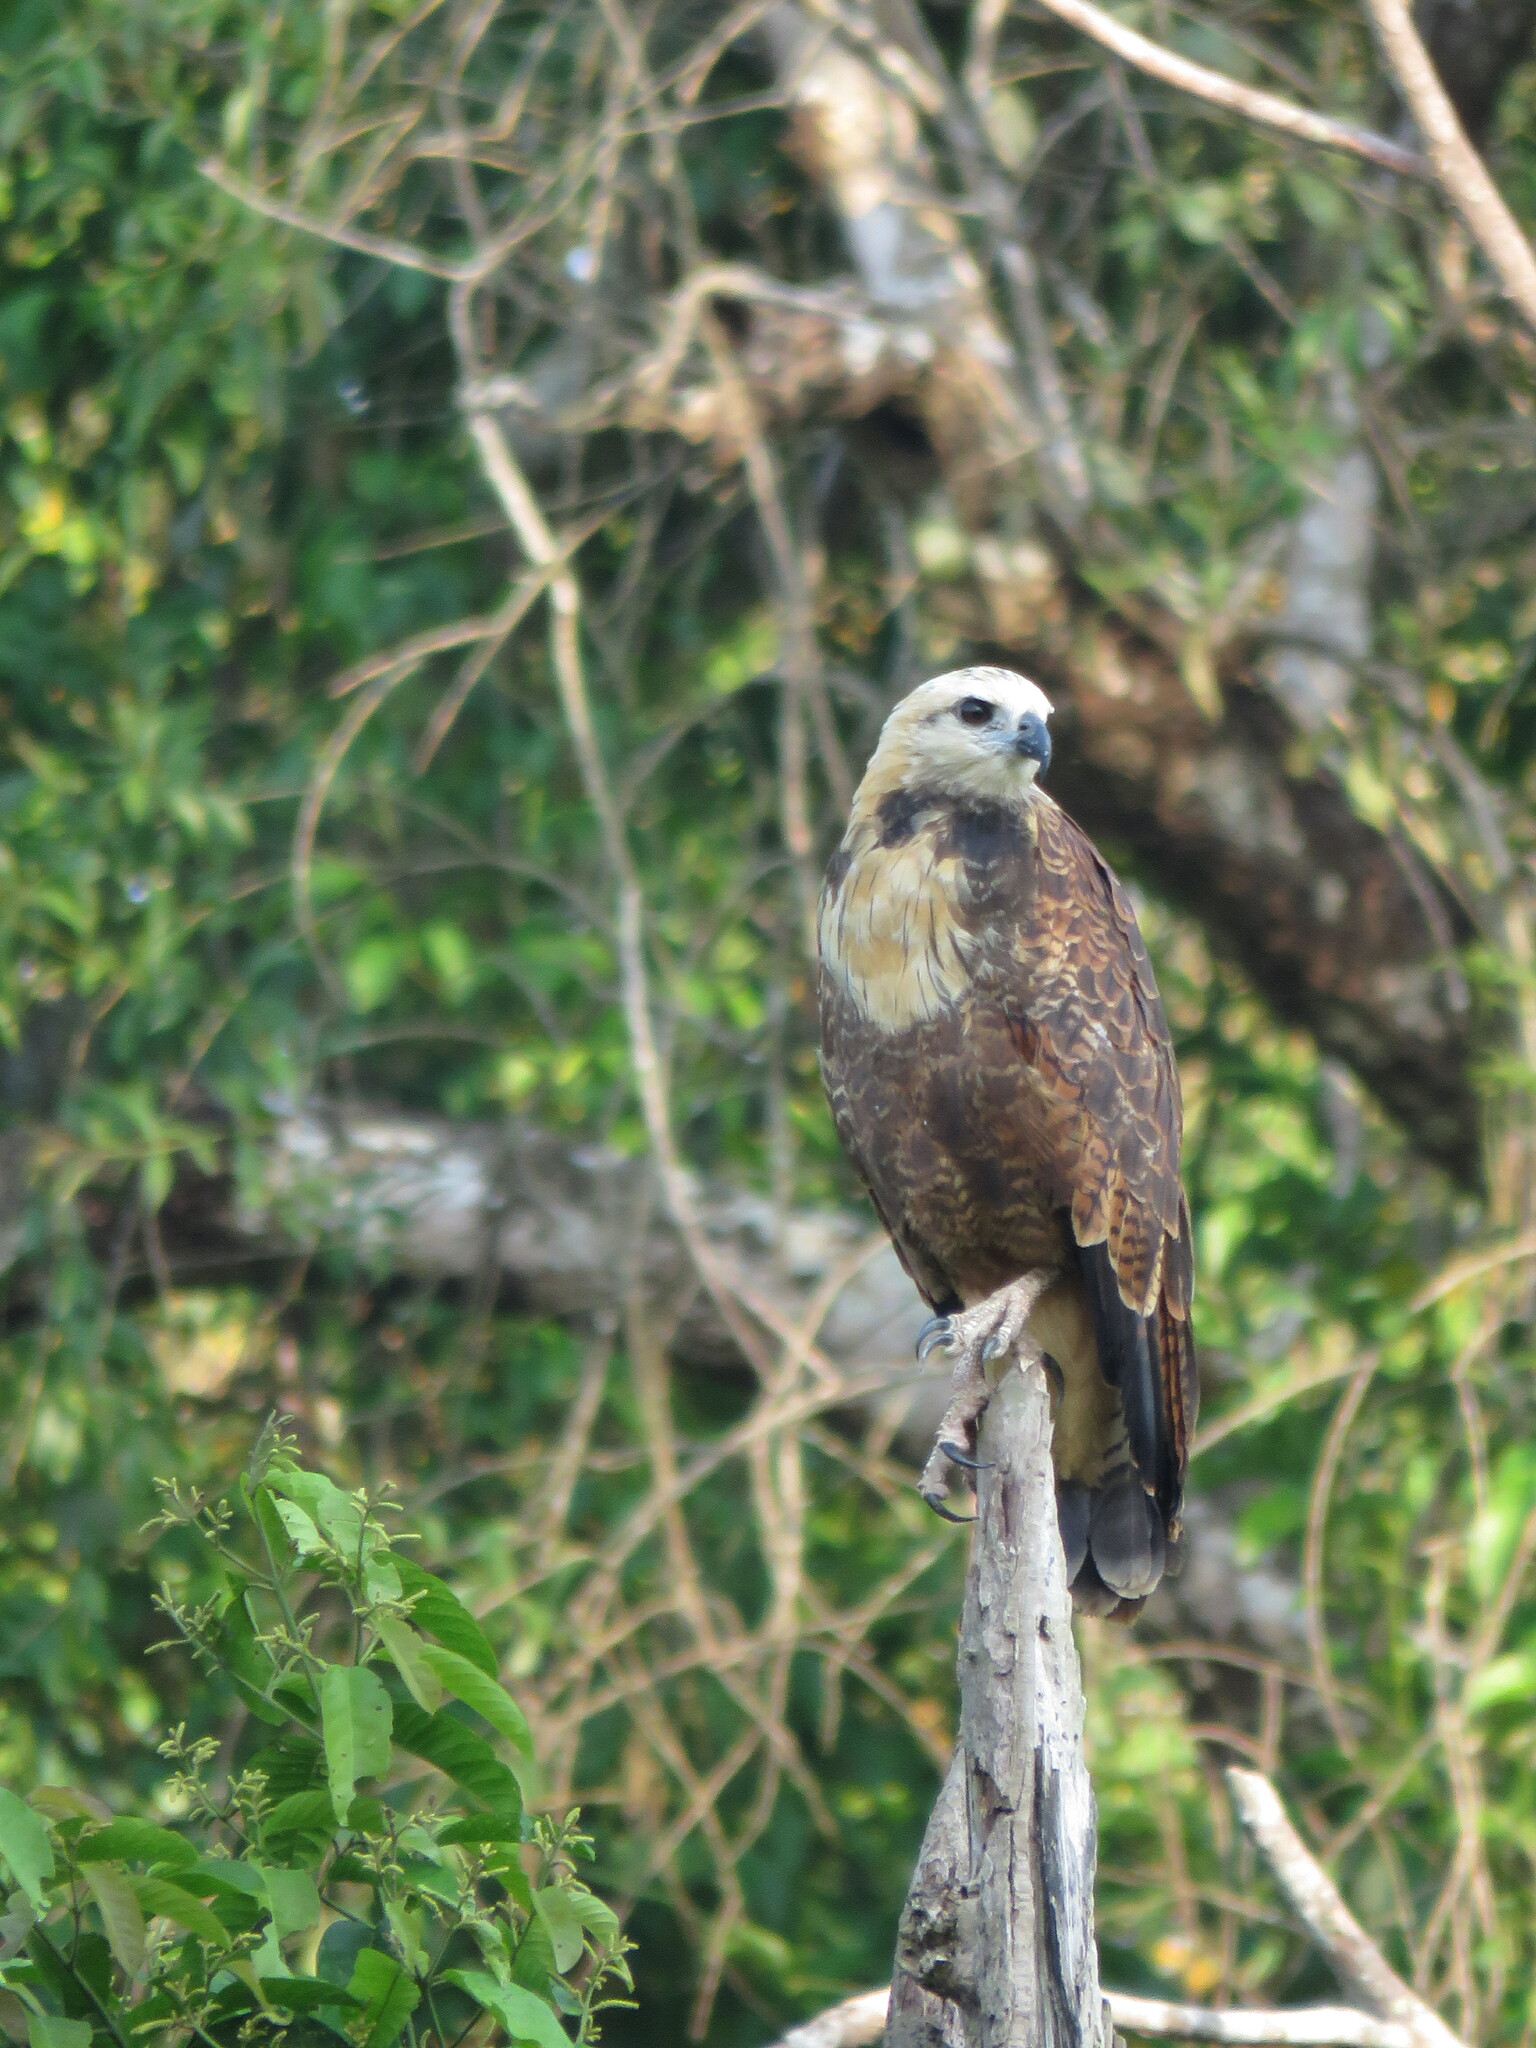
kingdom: Animalia
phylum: Chordata
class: Aves
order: Accipitriformes
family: Accipitridae
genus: Busarellus
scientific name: Busarellus nigricollis
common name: Black-collared hawk
